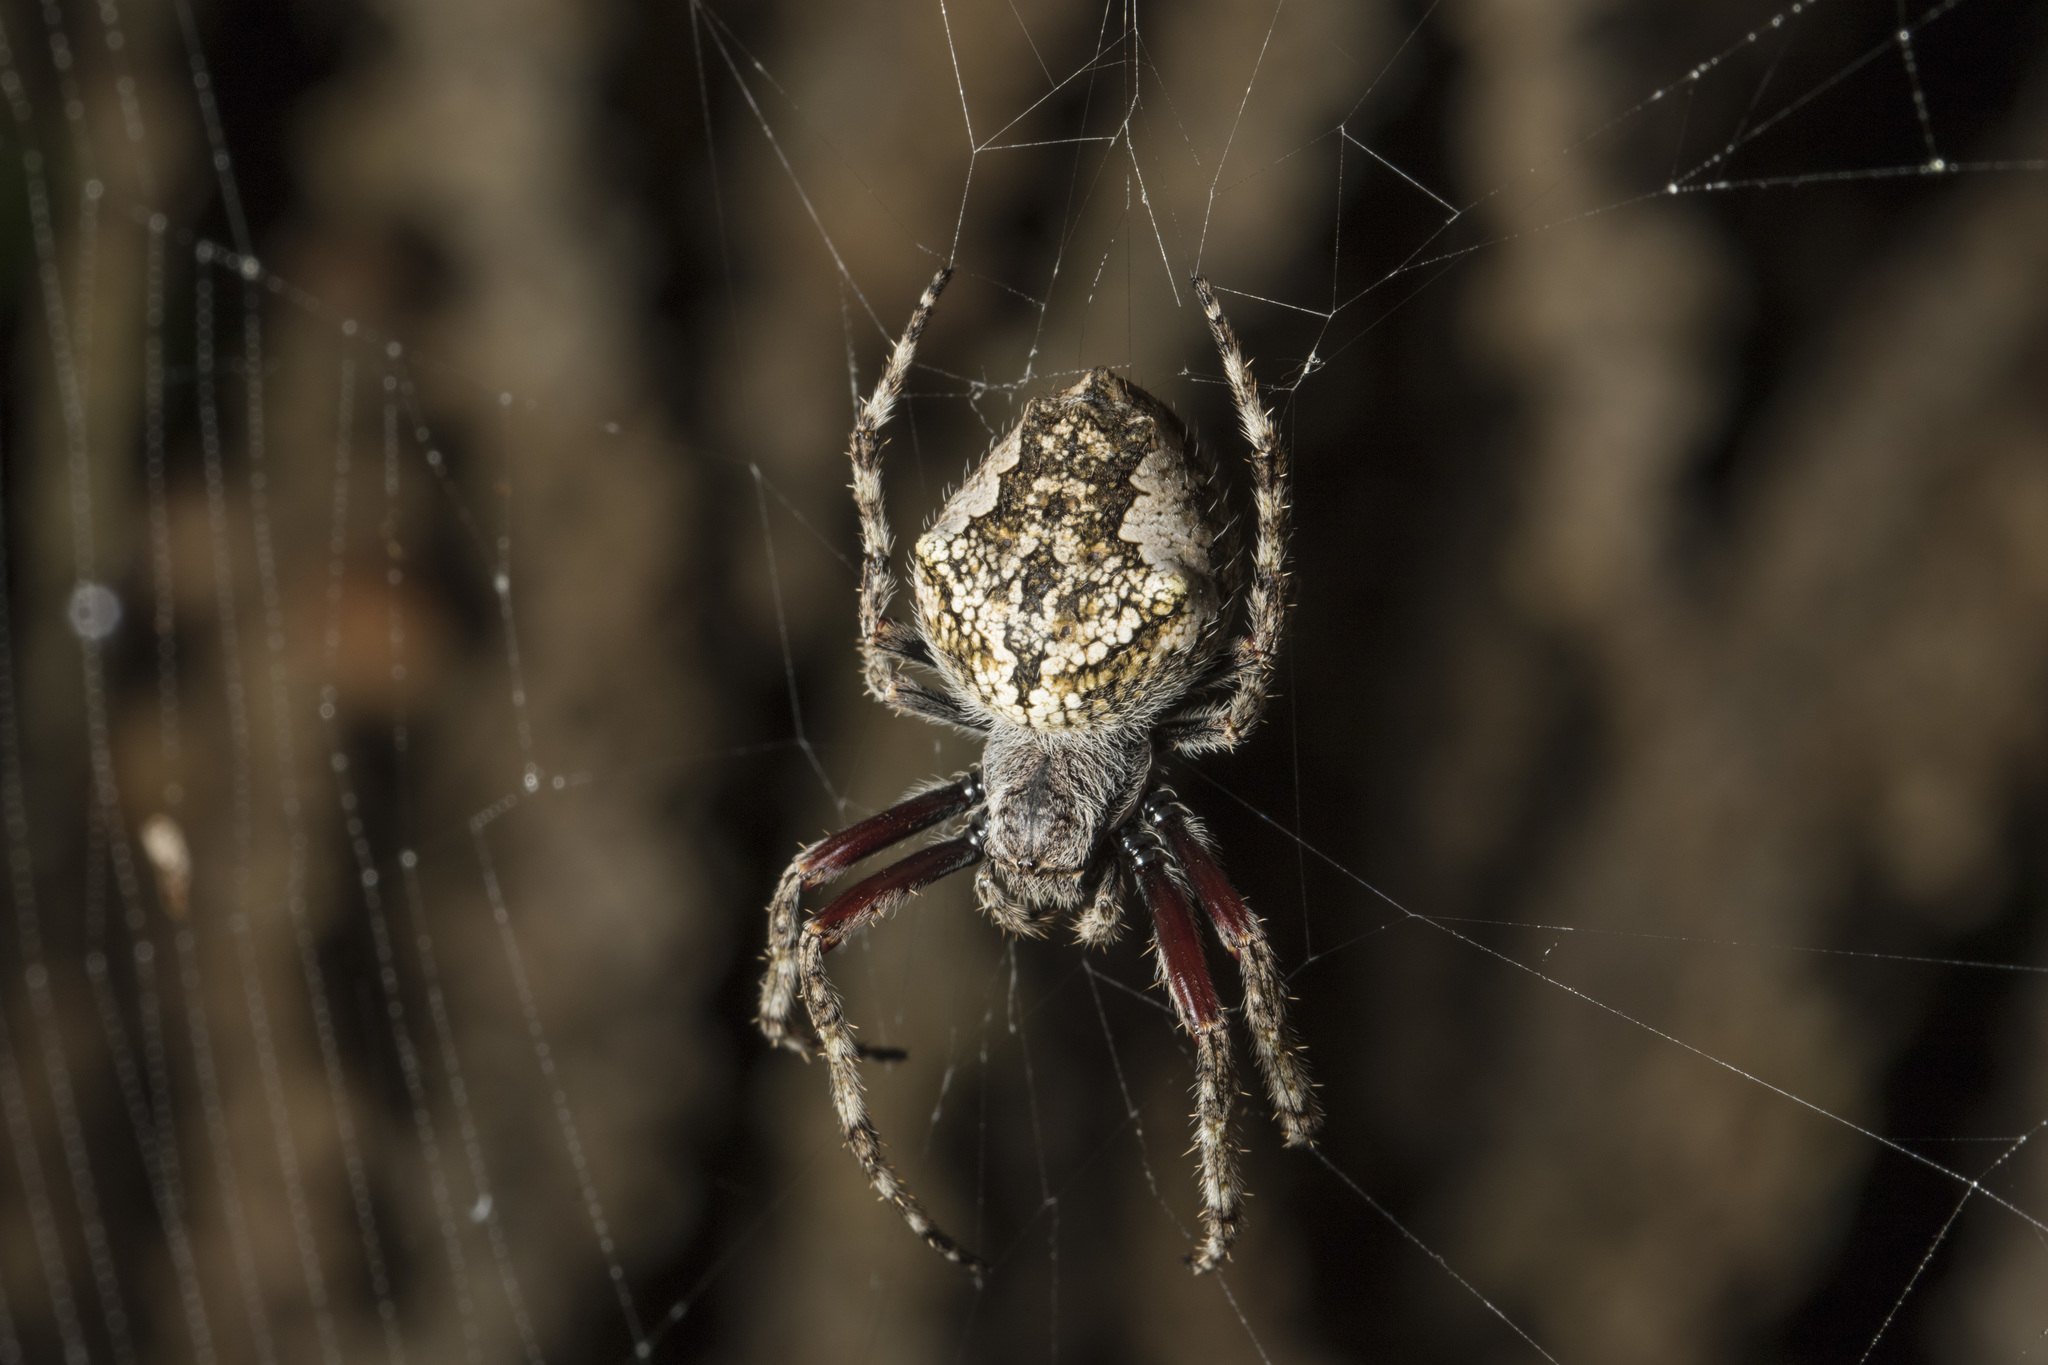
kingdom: Animalia
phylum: Arthropoda
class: Arachnida
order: Araneae
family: Araneidae
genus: Eriophora
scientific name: Eriophora pustulosa
